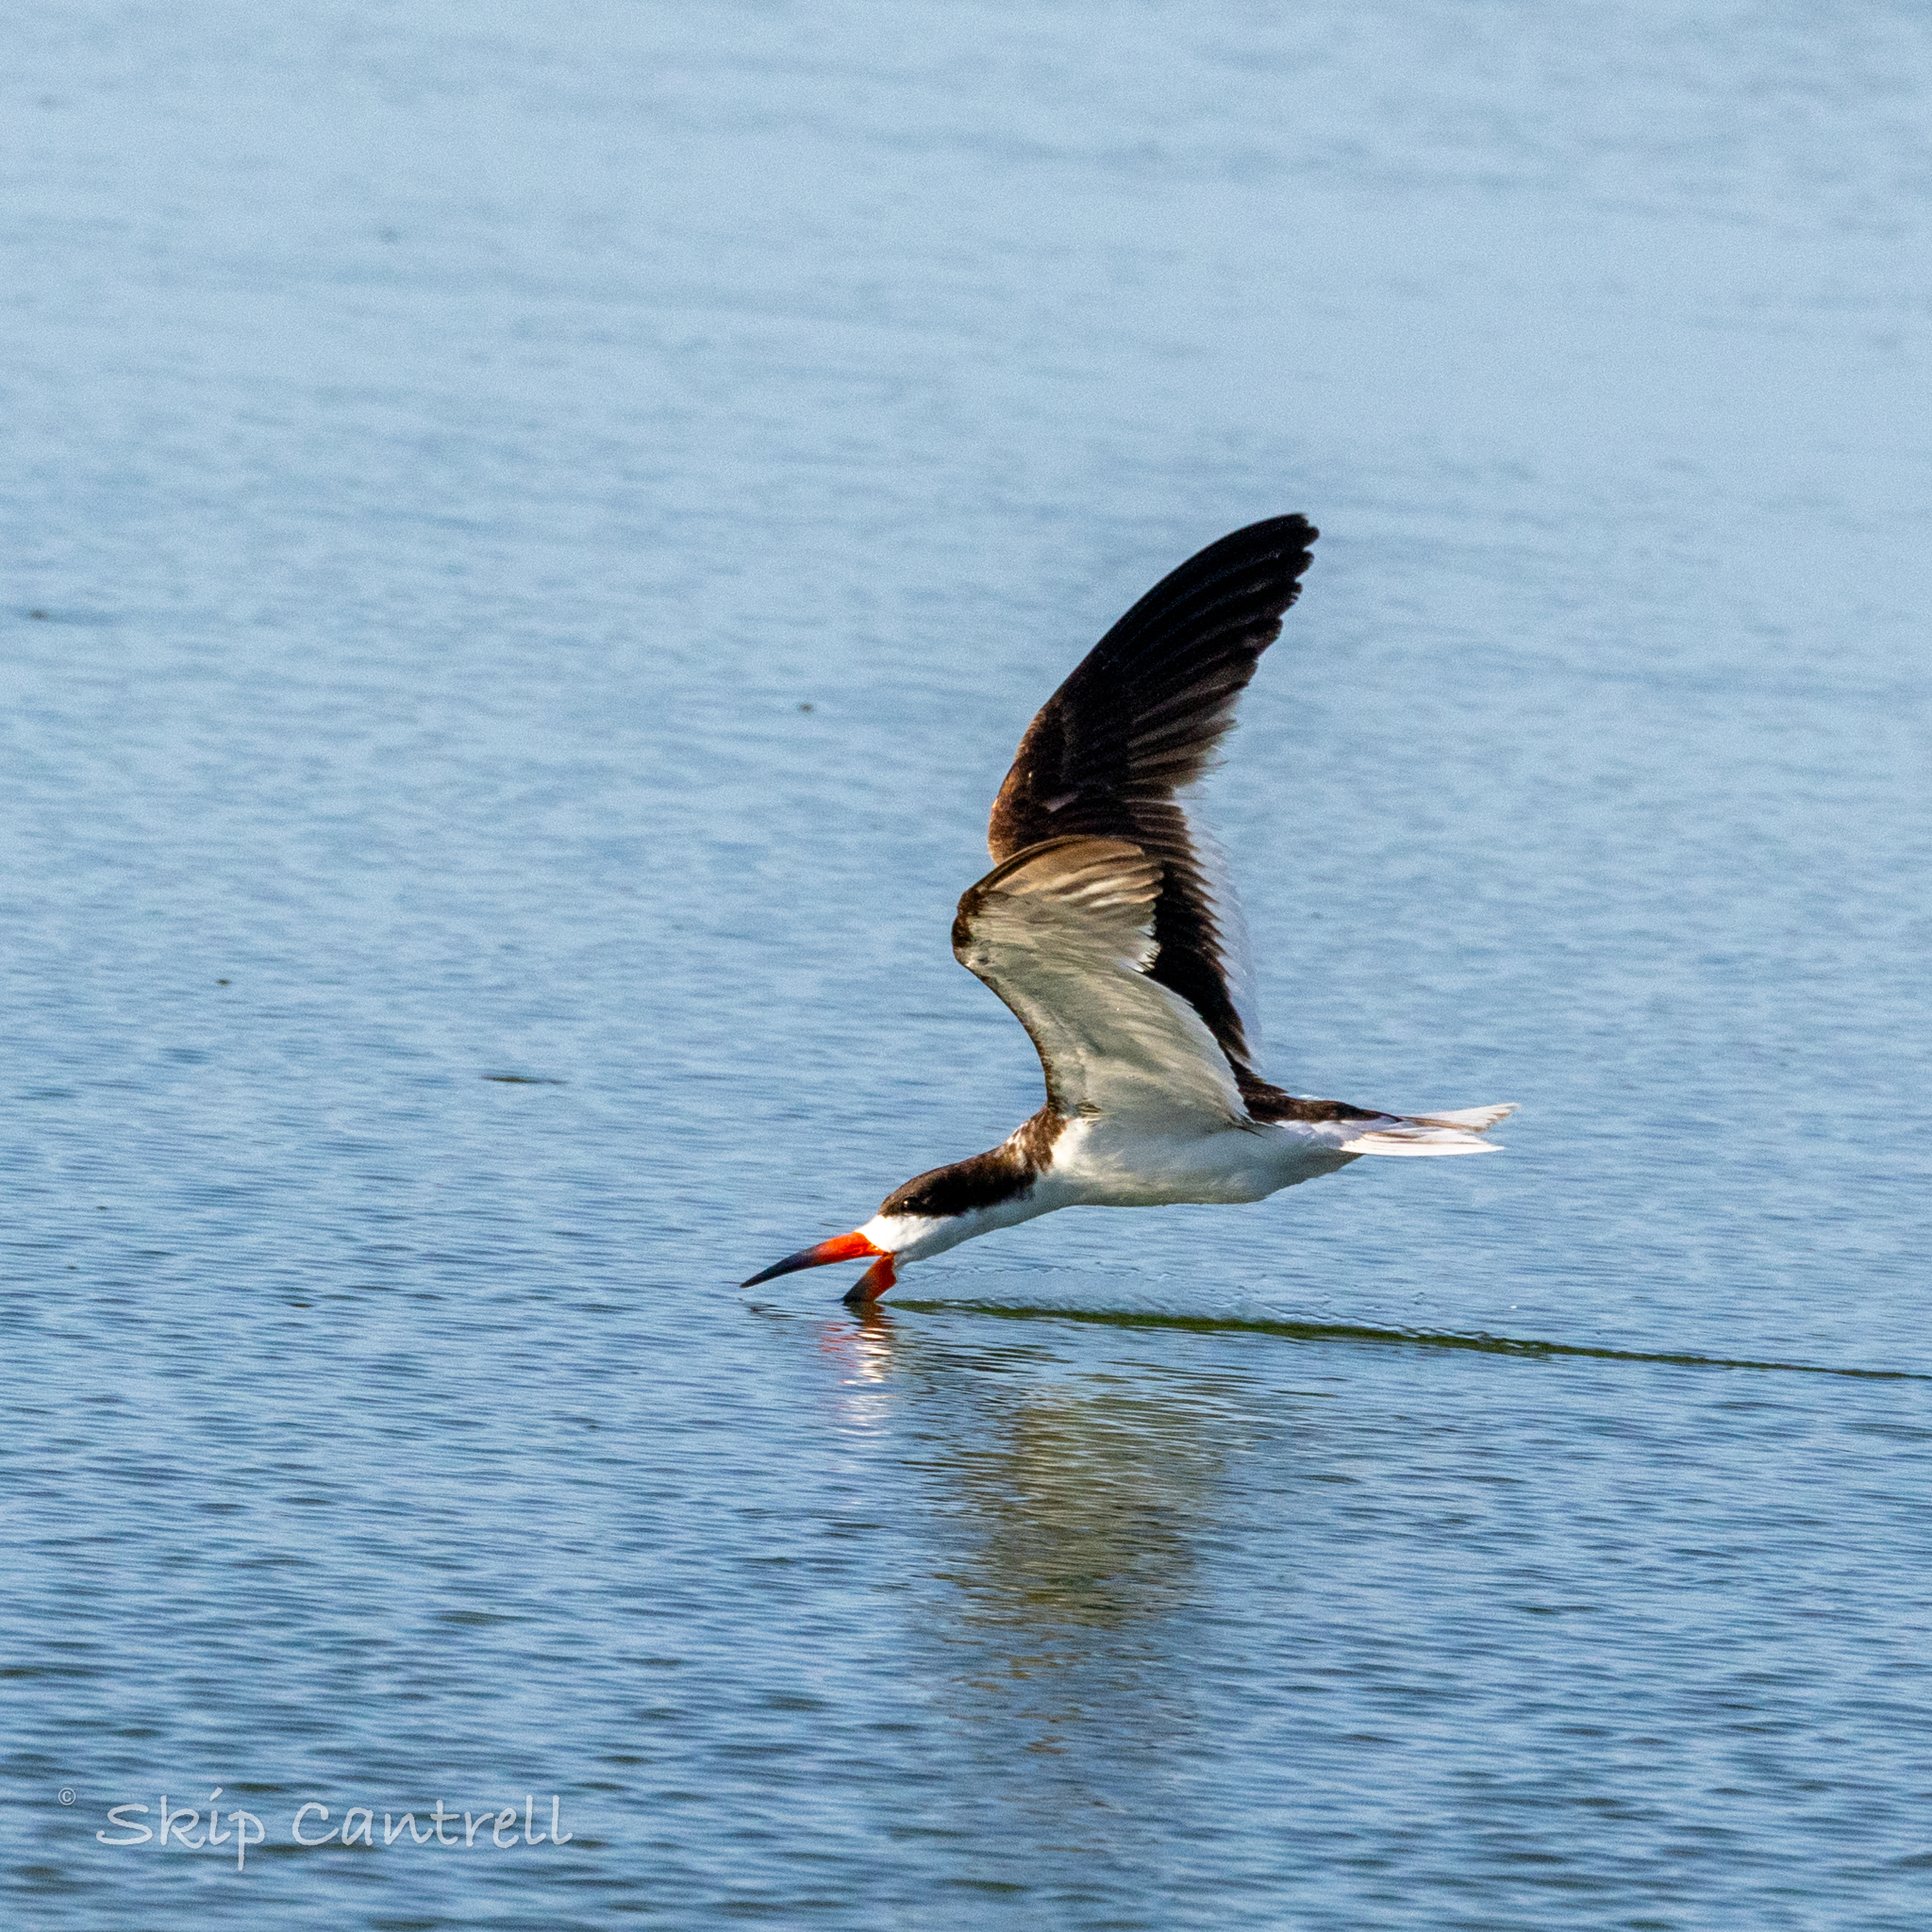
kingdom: Animalia
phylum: Chordata
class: Aves
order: Charadriiformes
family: Laridae
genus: Rynchops
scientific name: Rynchops niger
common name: Black skimmer
